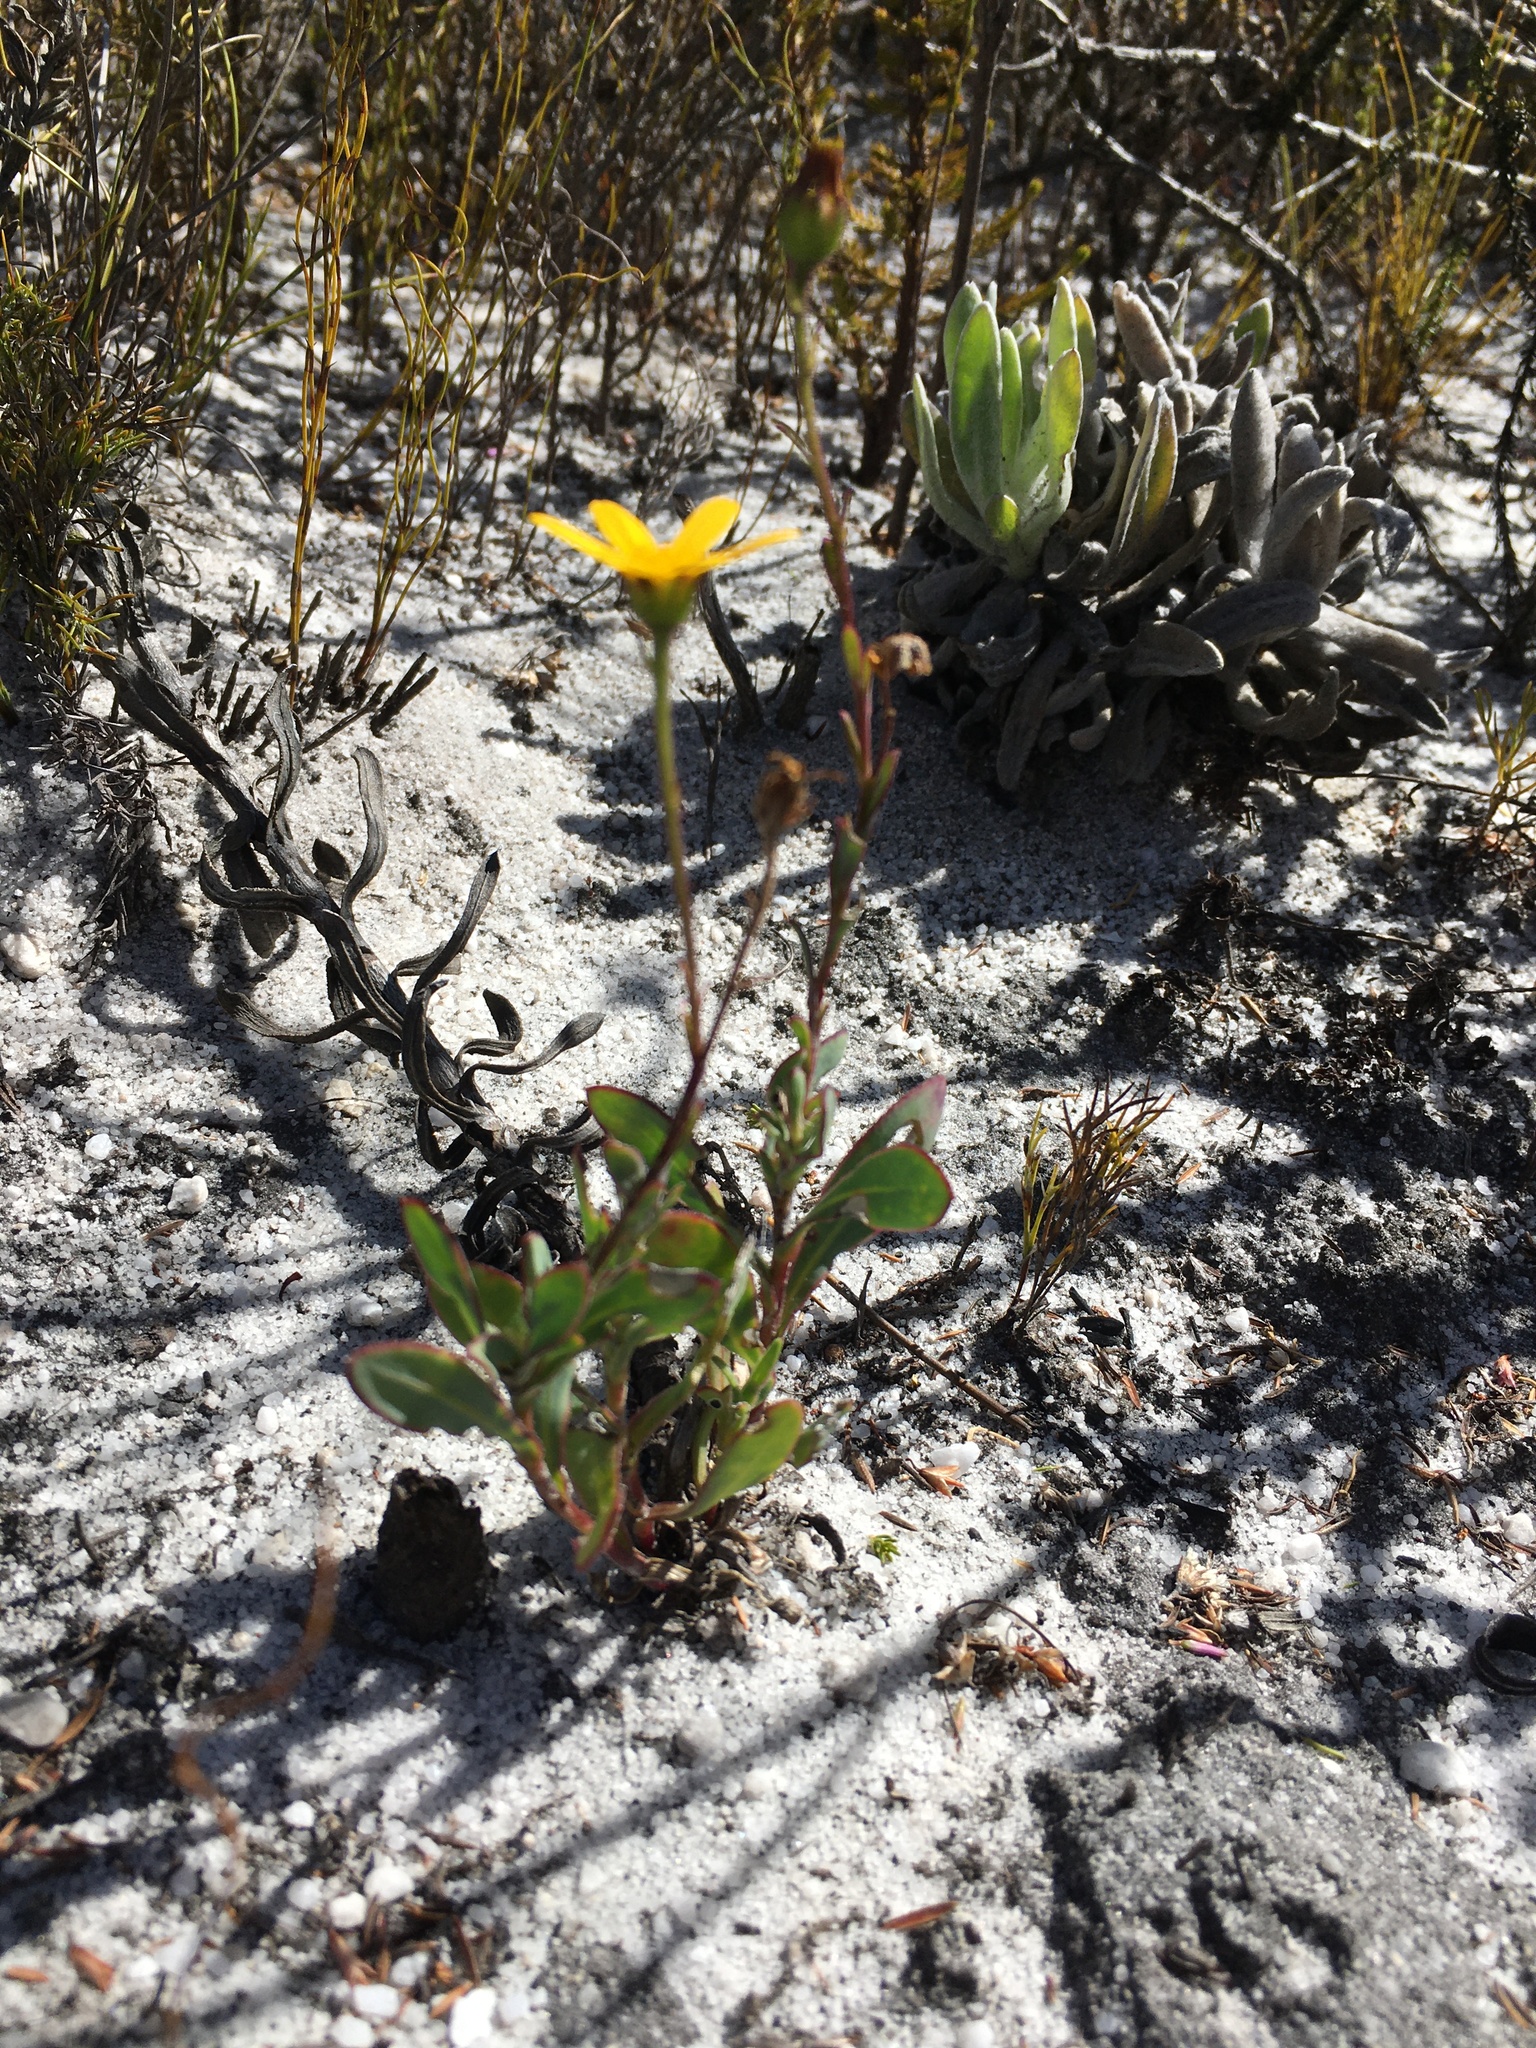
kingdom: Plantae
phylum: Tracheophyta
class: Magnoliopsida
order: Asterales
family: Asteraceae
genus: Othonna
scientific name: Othonna arborescens
